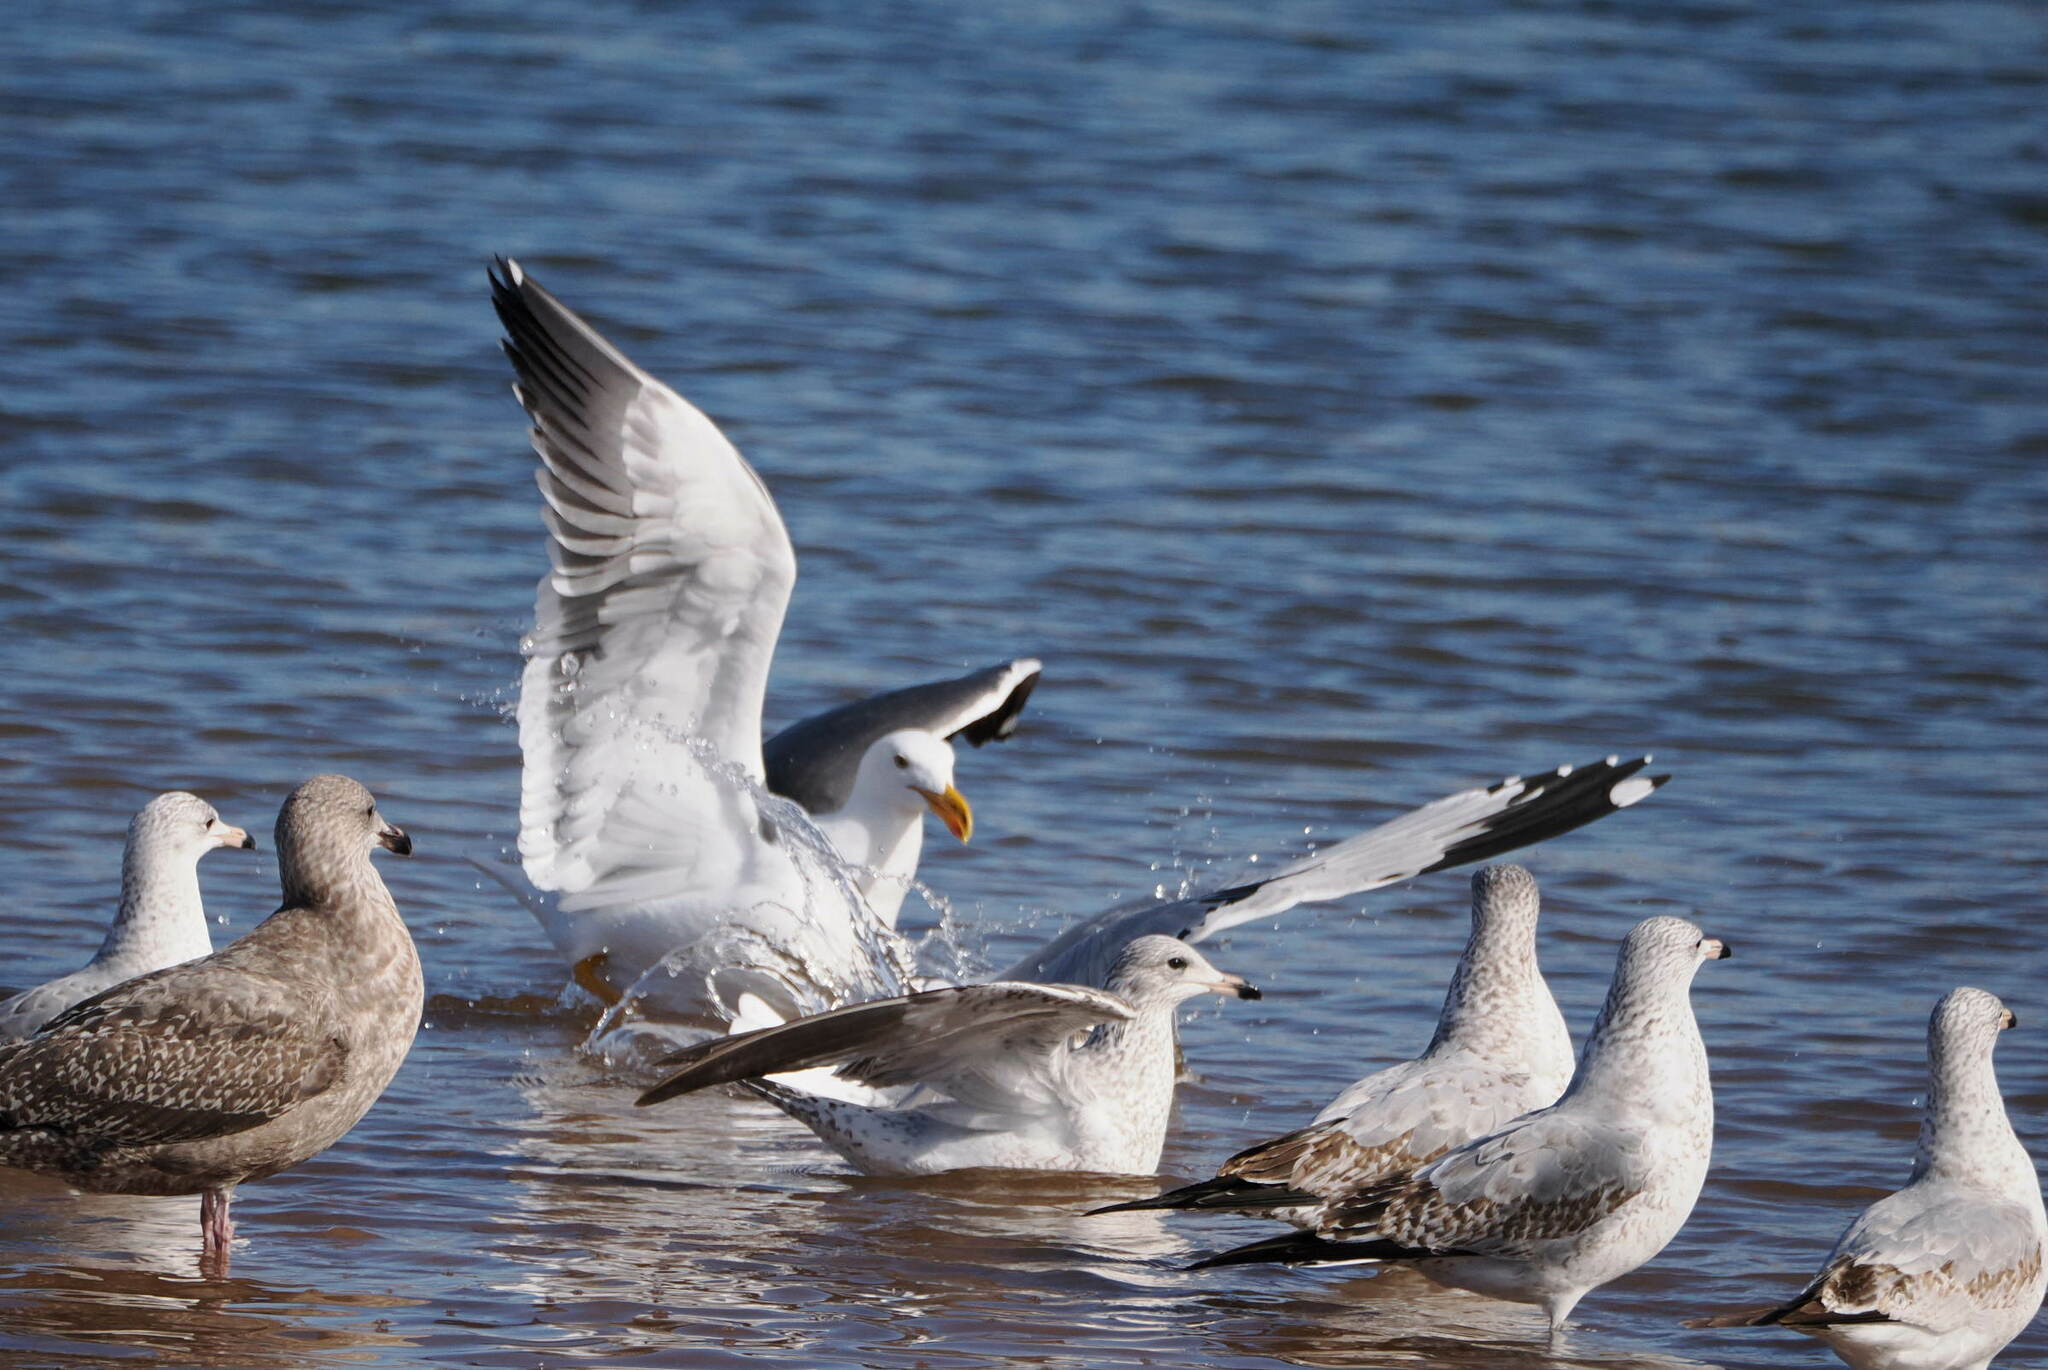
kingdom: Animalia
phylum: Chordata
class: Aves
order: Charadriiformes
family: Laridae
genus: Larus
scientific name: Larus livens
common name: Yellow-footed gull
